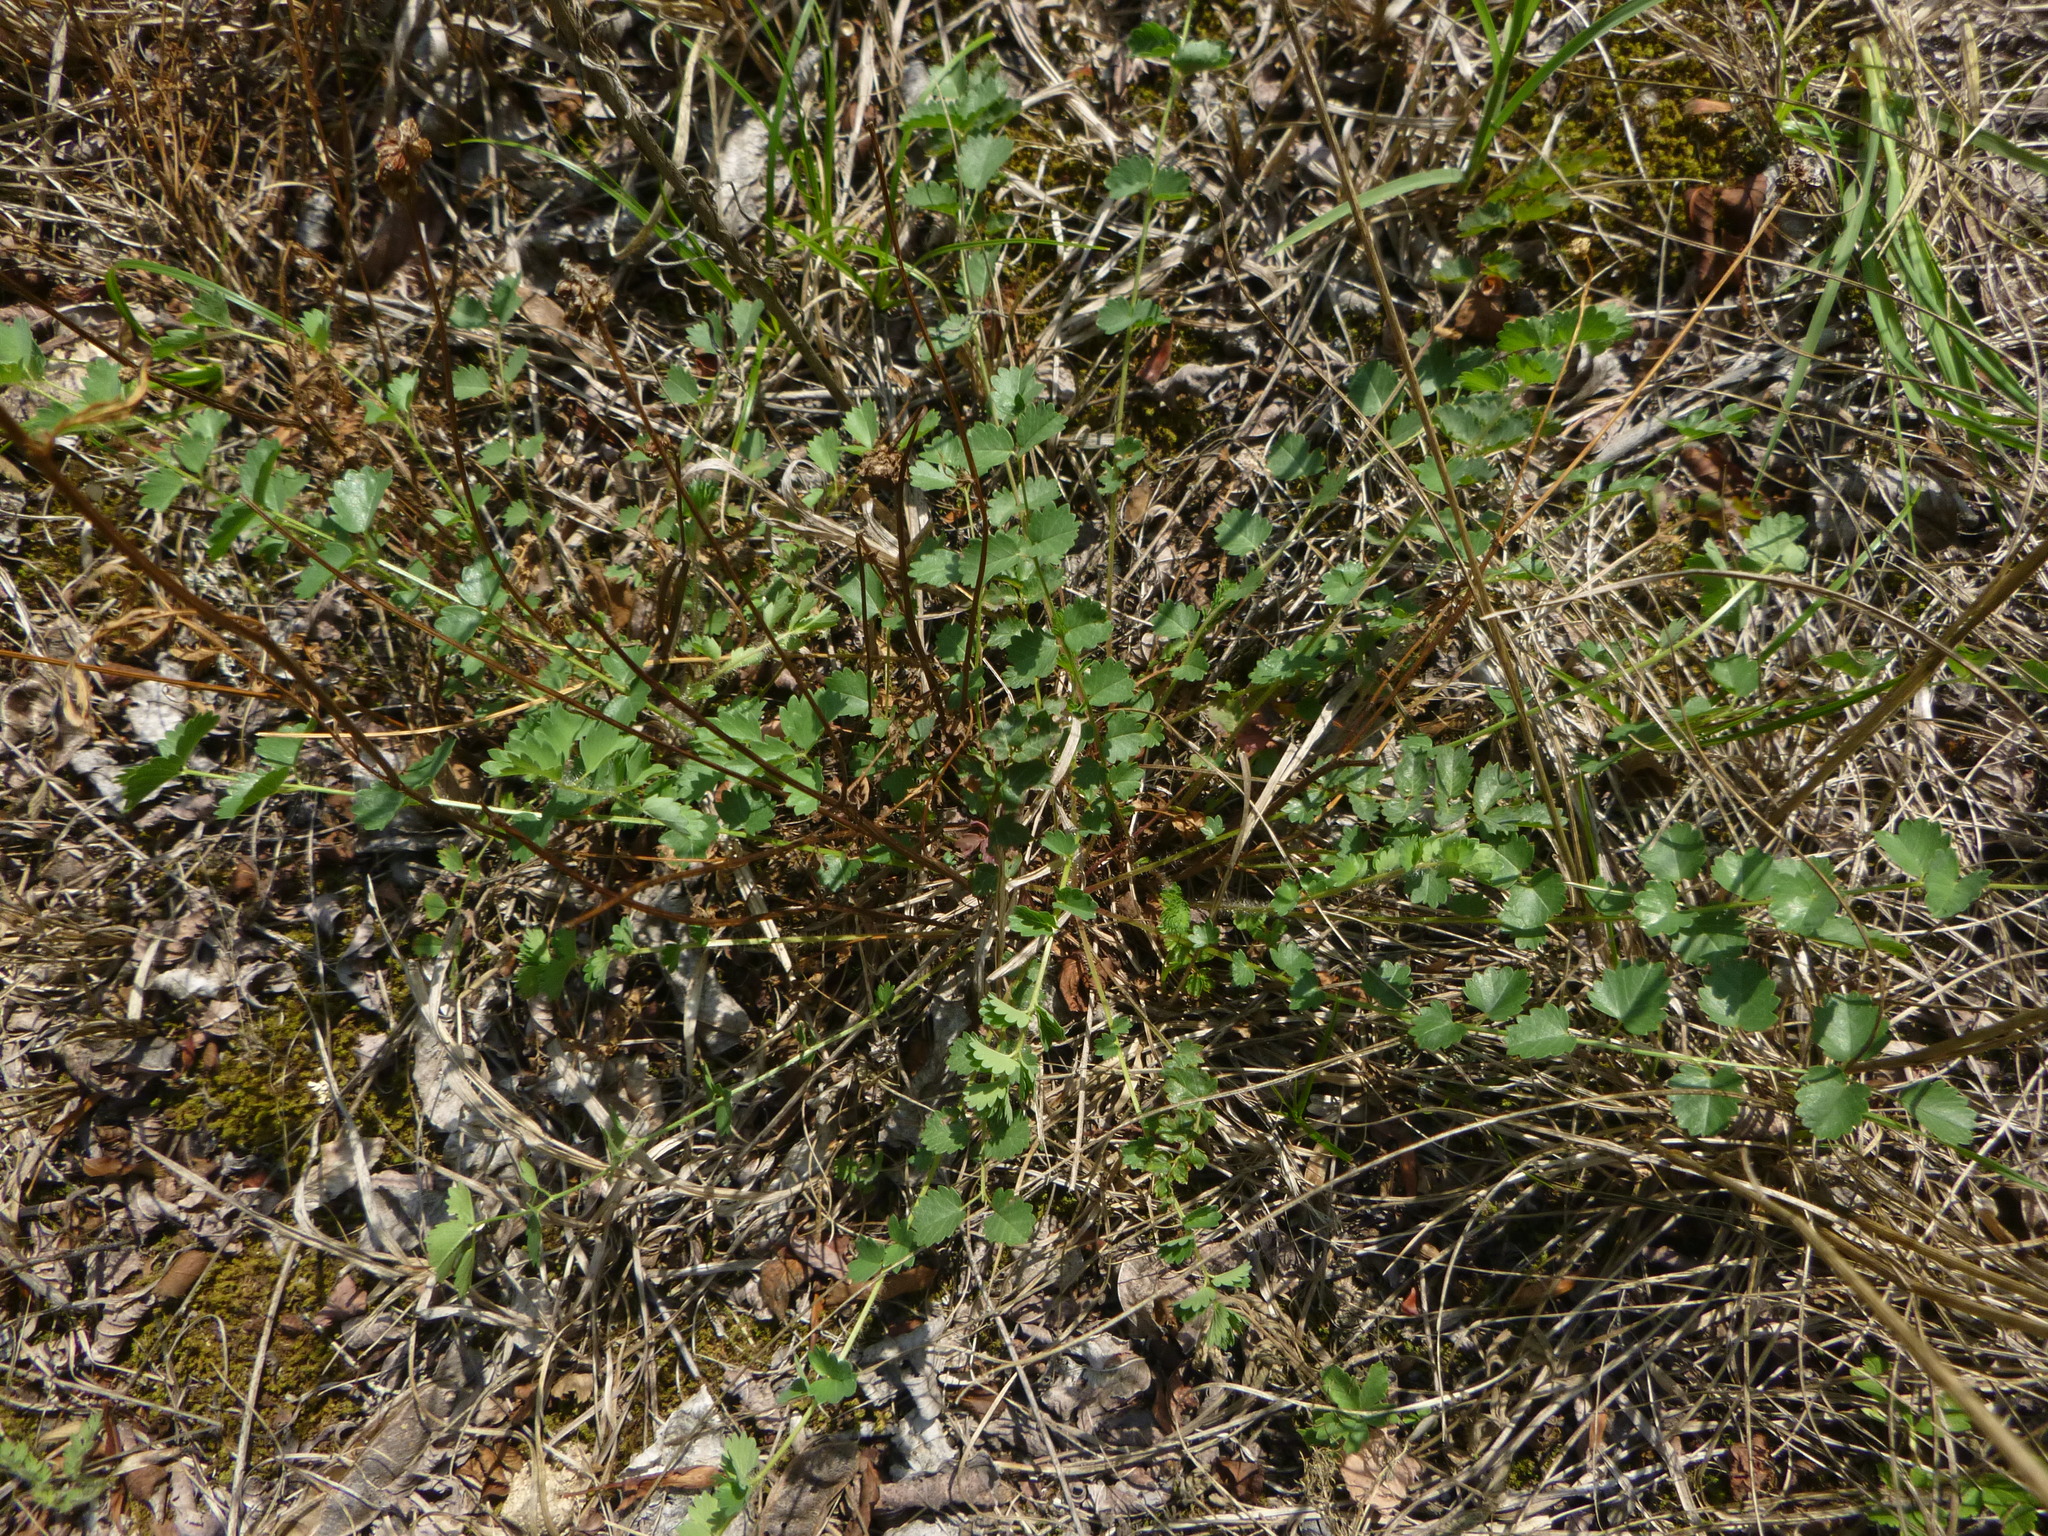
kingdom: Plantae
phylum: Tracheophyta
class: Magnoliopsida
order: Rosales
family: Rosaceae
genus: Poterium
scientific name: Poterium sanguisorba
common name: Salad burnet
